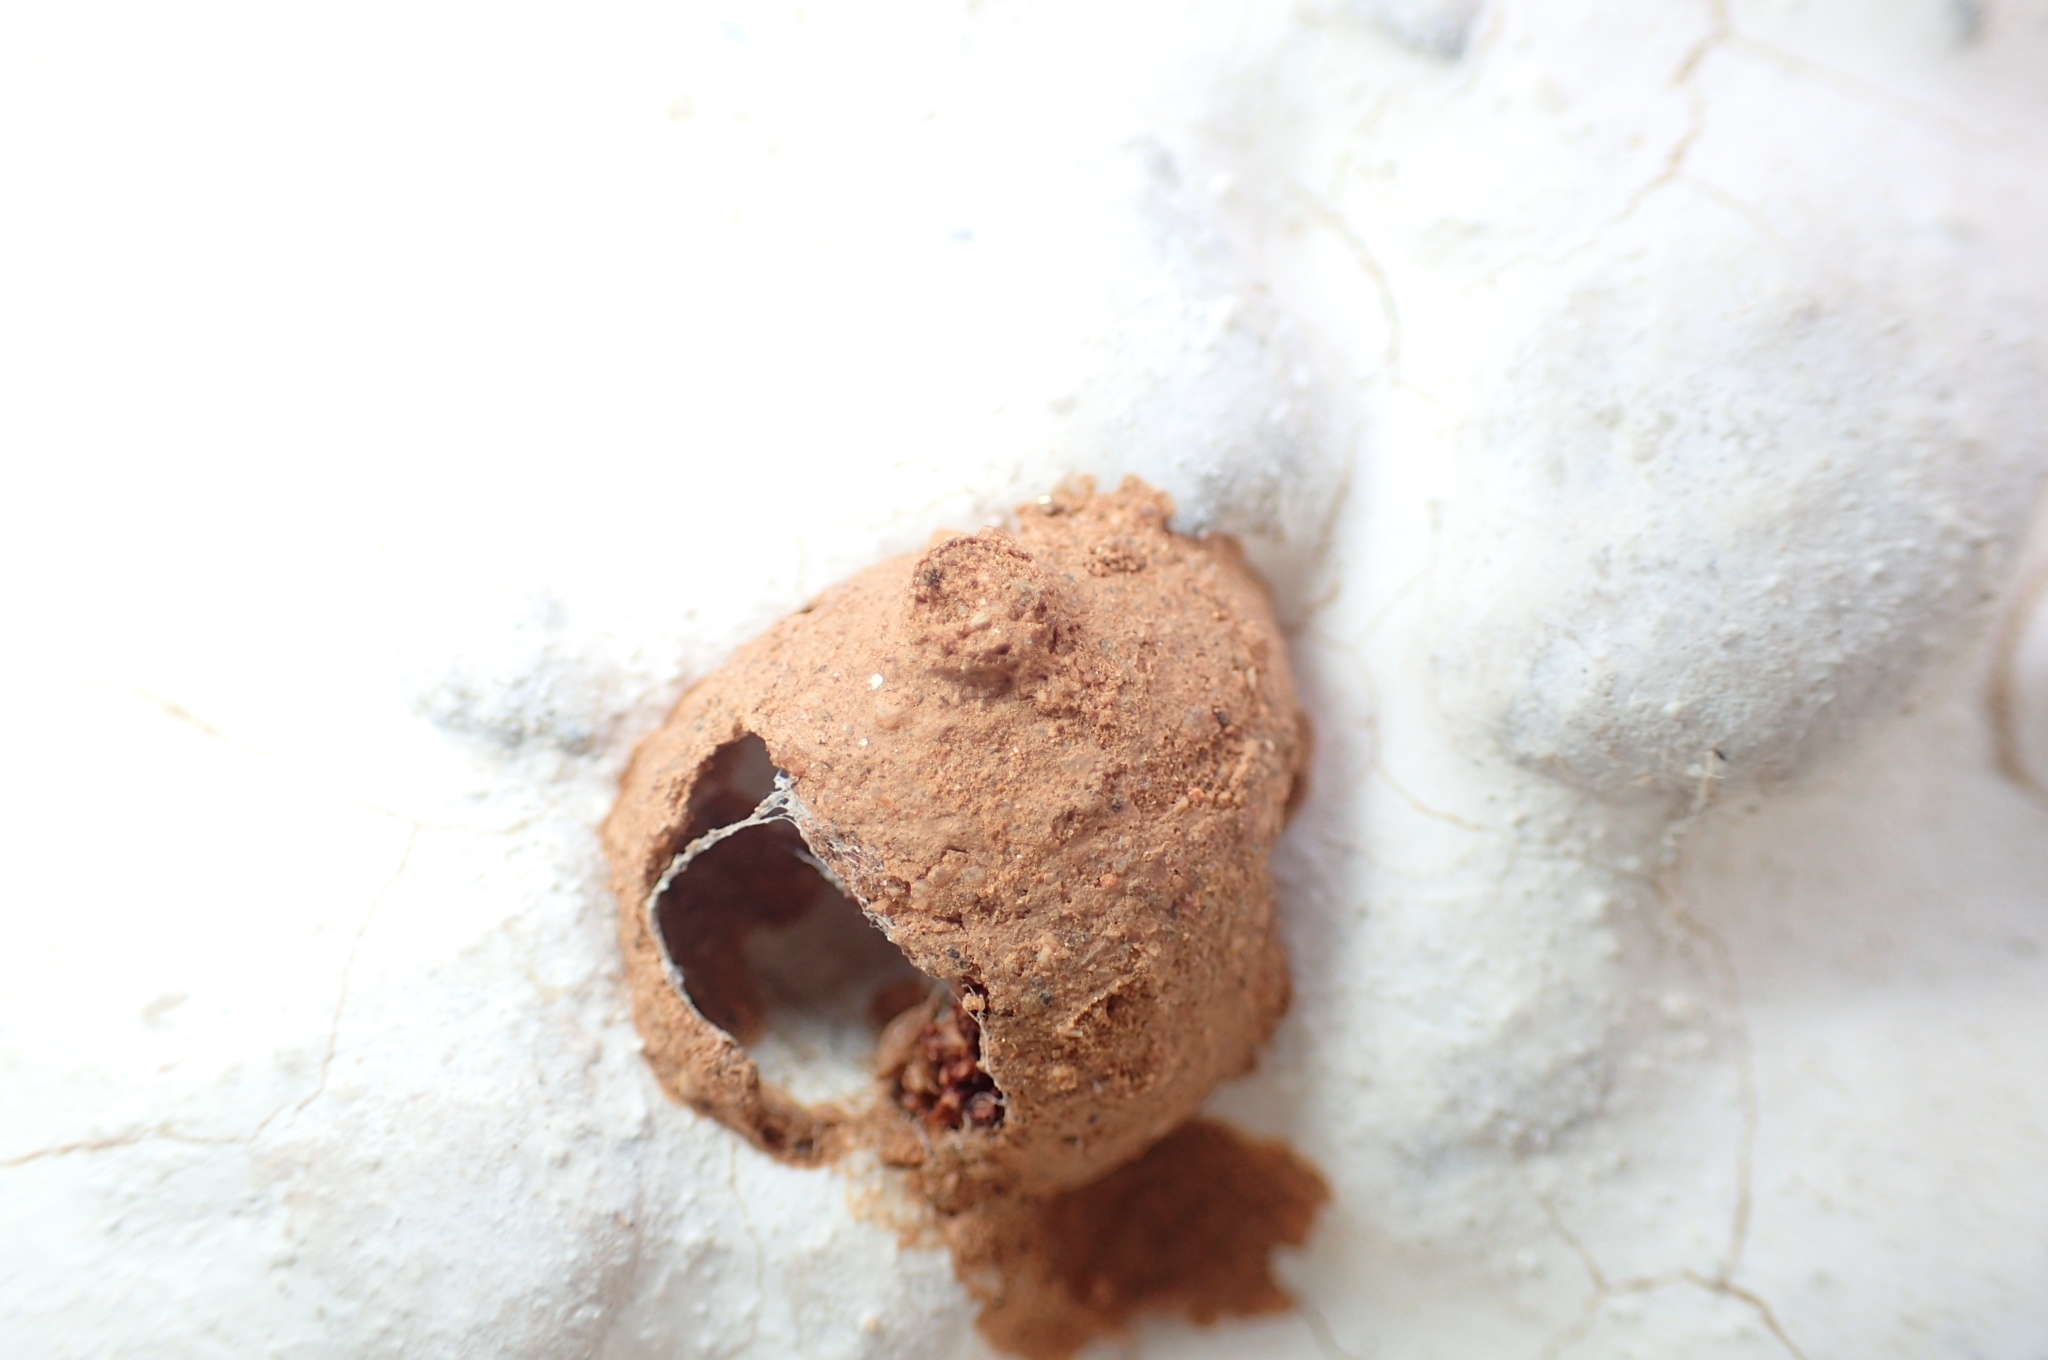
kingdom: Animalia
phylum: Arthropoda
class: Insecta
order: Hymenoptera
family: Eumenidae
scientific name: Eumenidae
